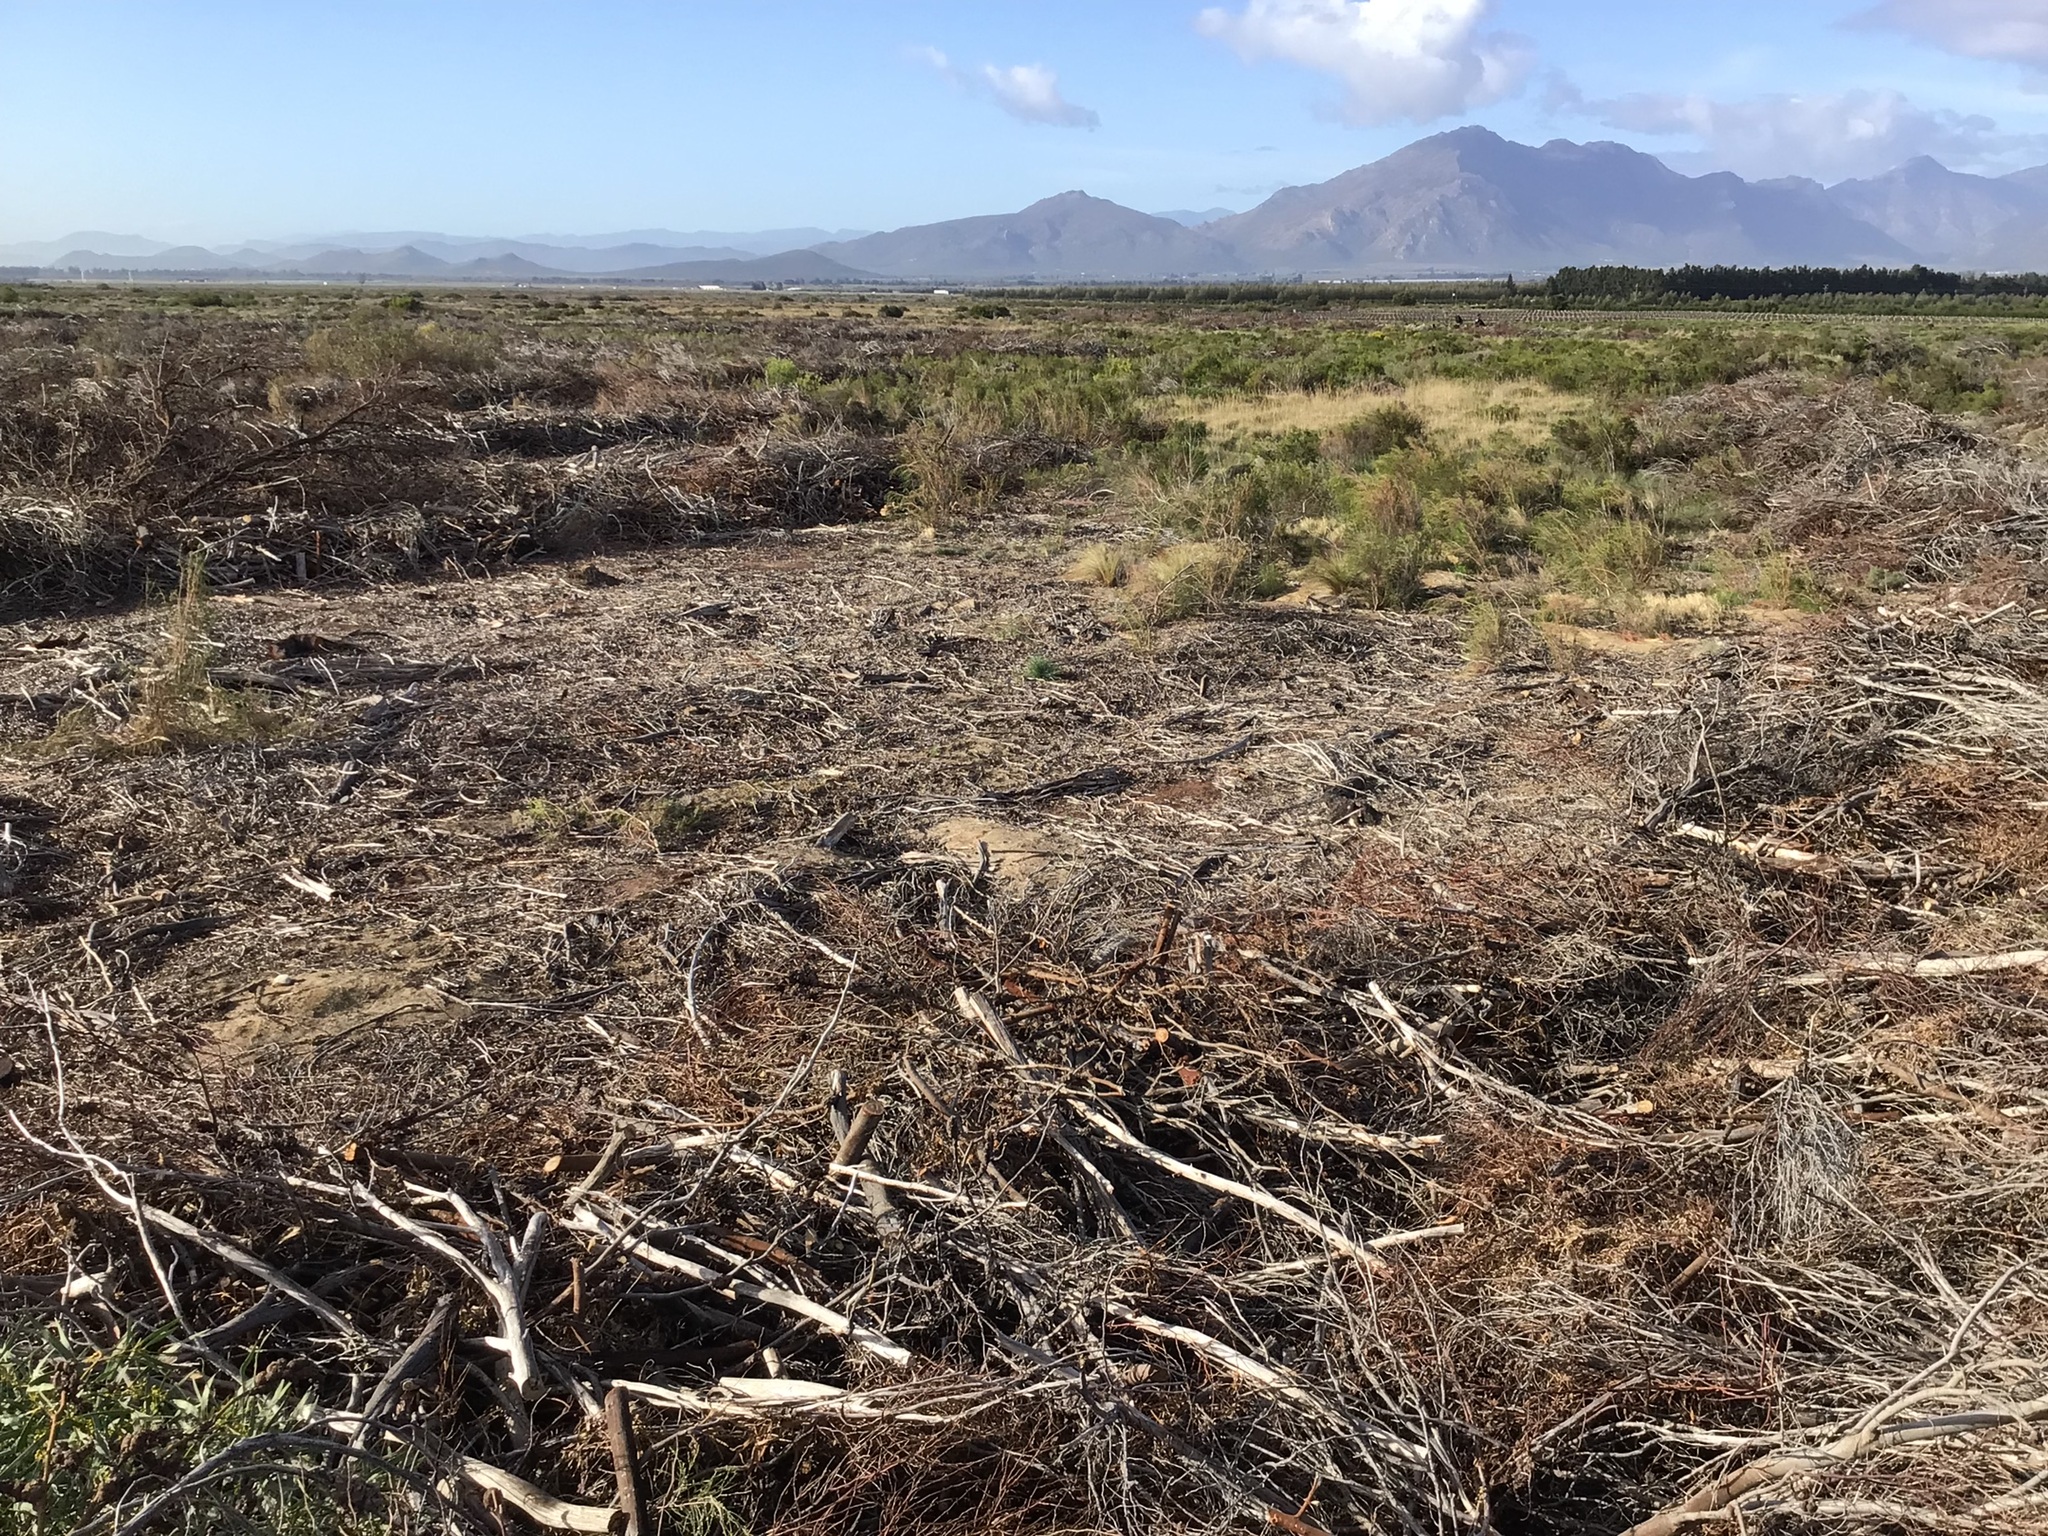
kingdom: Plantae
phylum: Tracheophyta
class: Magnoliopsida
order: Fabales
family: Fabaceae
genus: Acacia
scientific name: Acacia saligna
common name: Orange wattle
